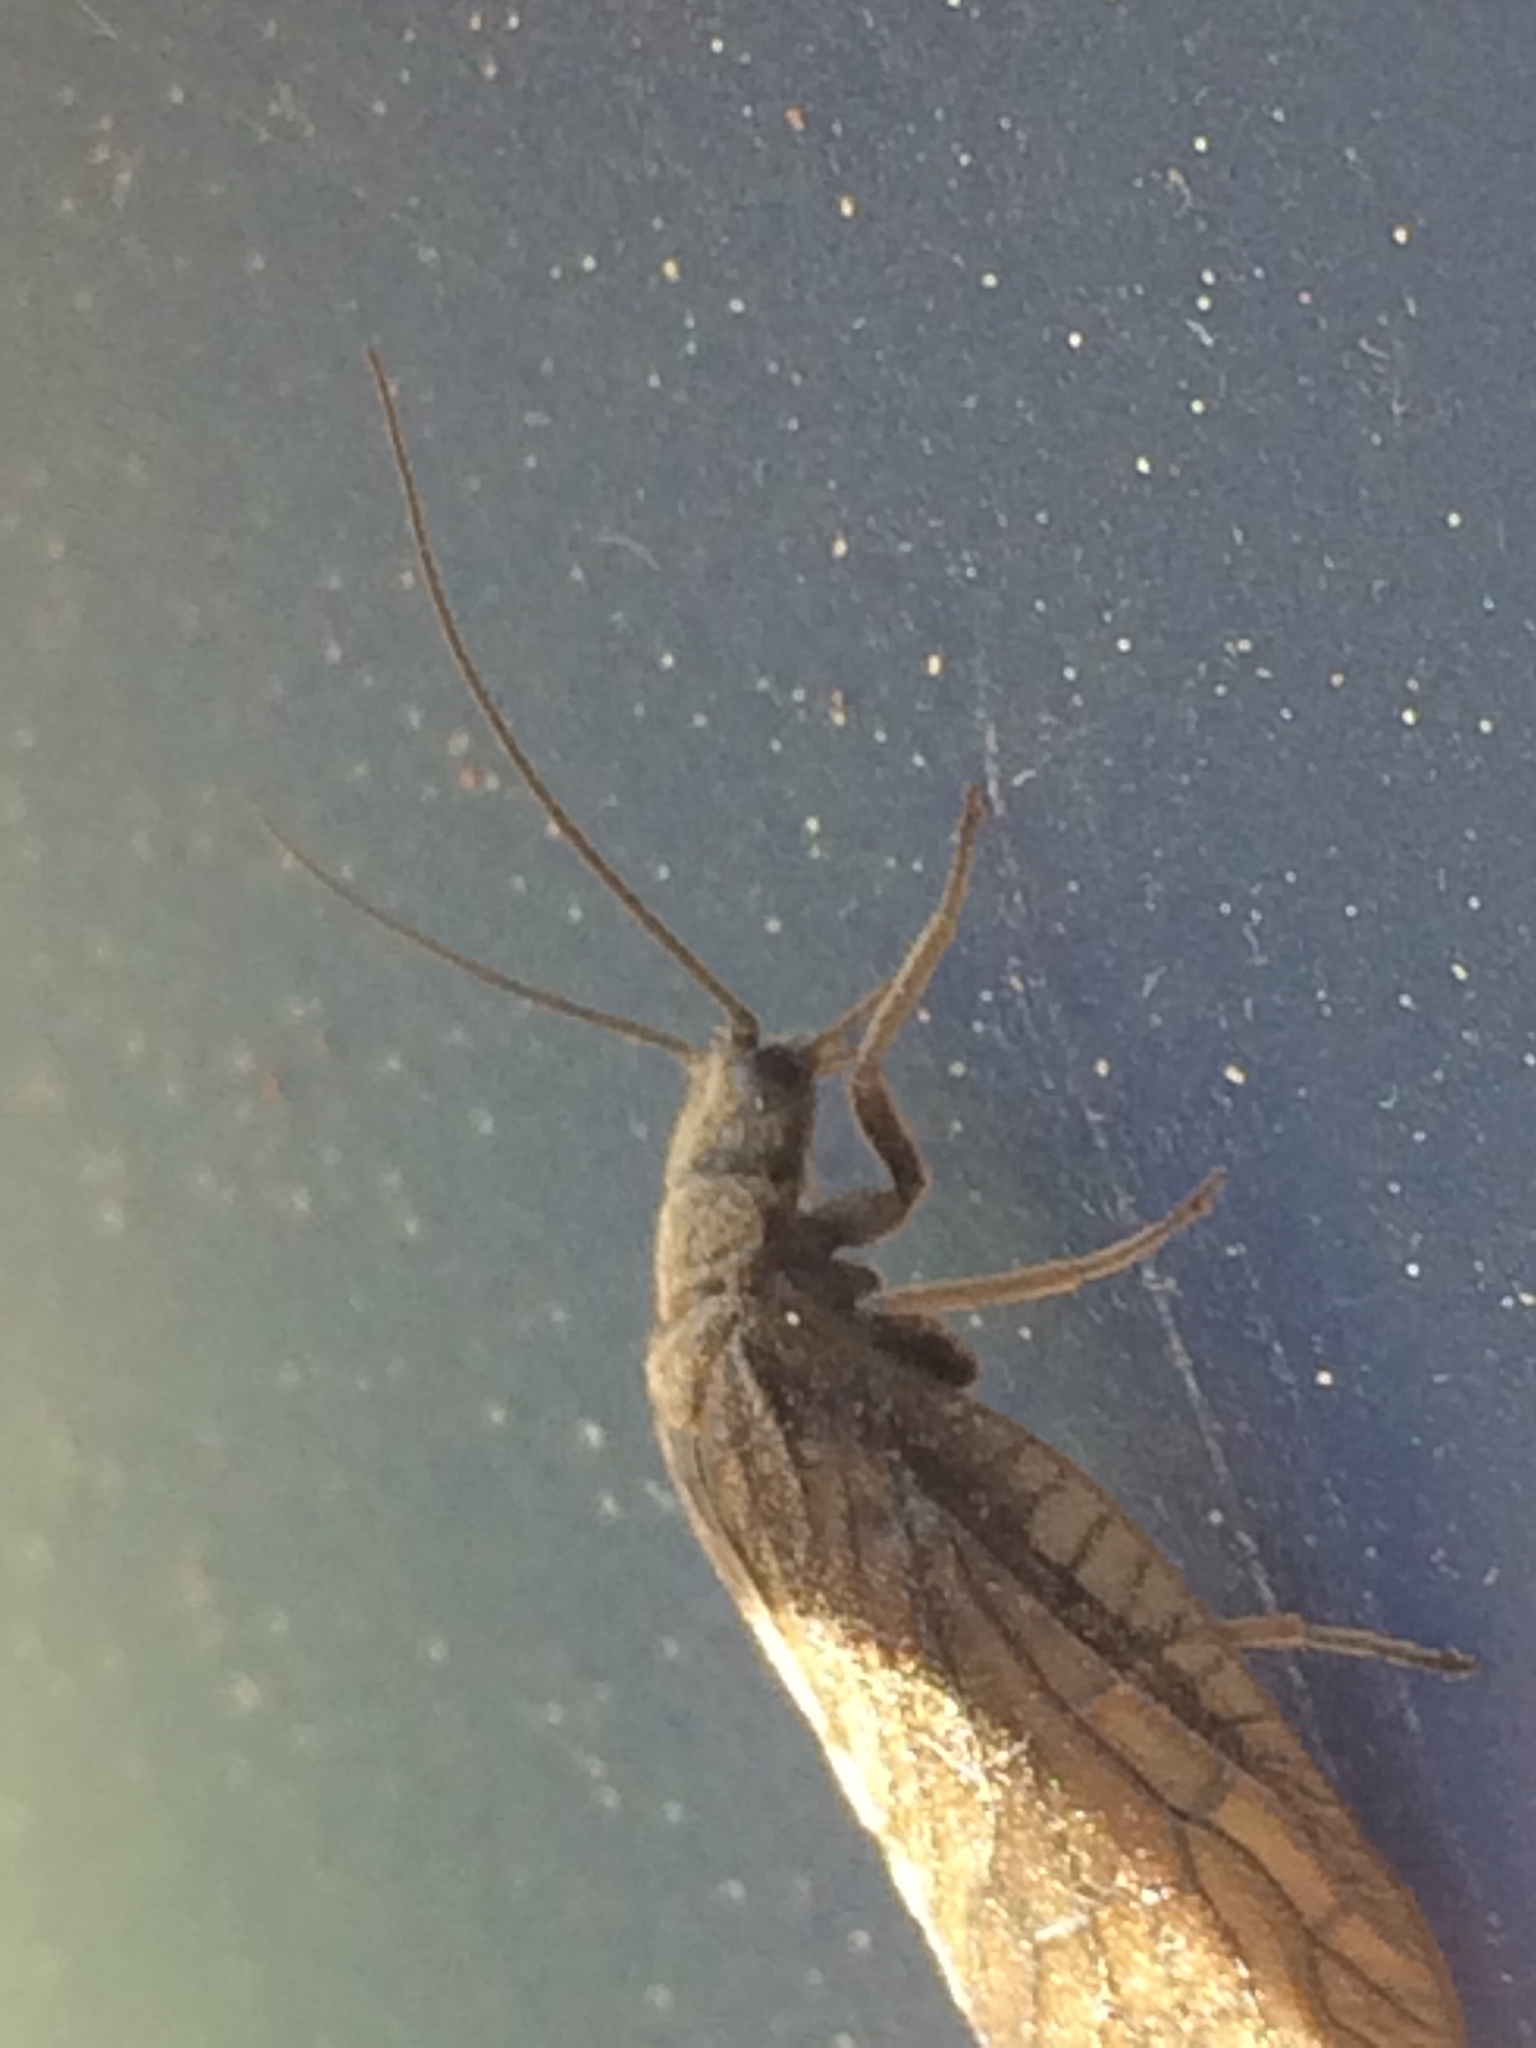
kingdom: Animalia
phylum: Arthropoda
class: Insecta
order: Megaloptera
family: Sialidae
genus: Sialis
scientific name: Sialis
